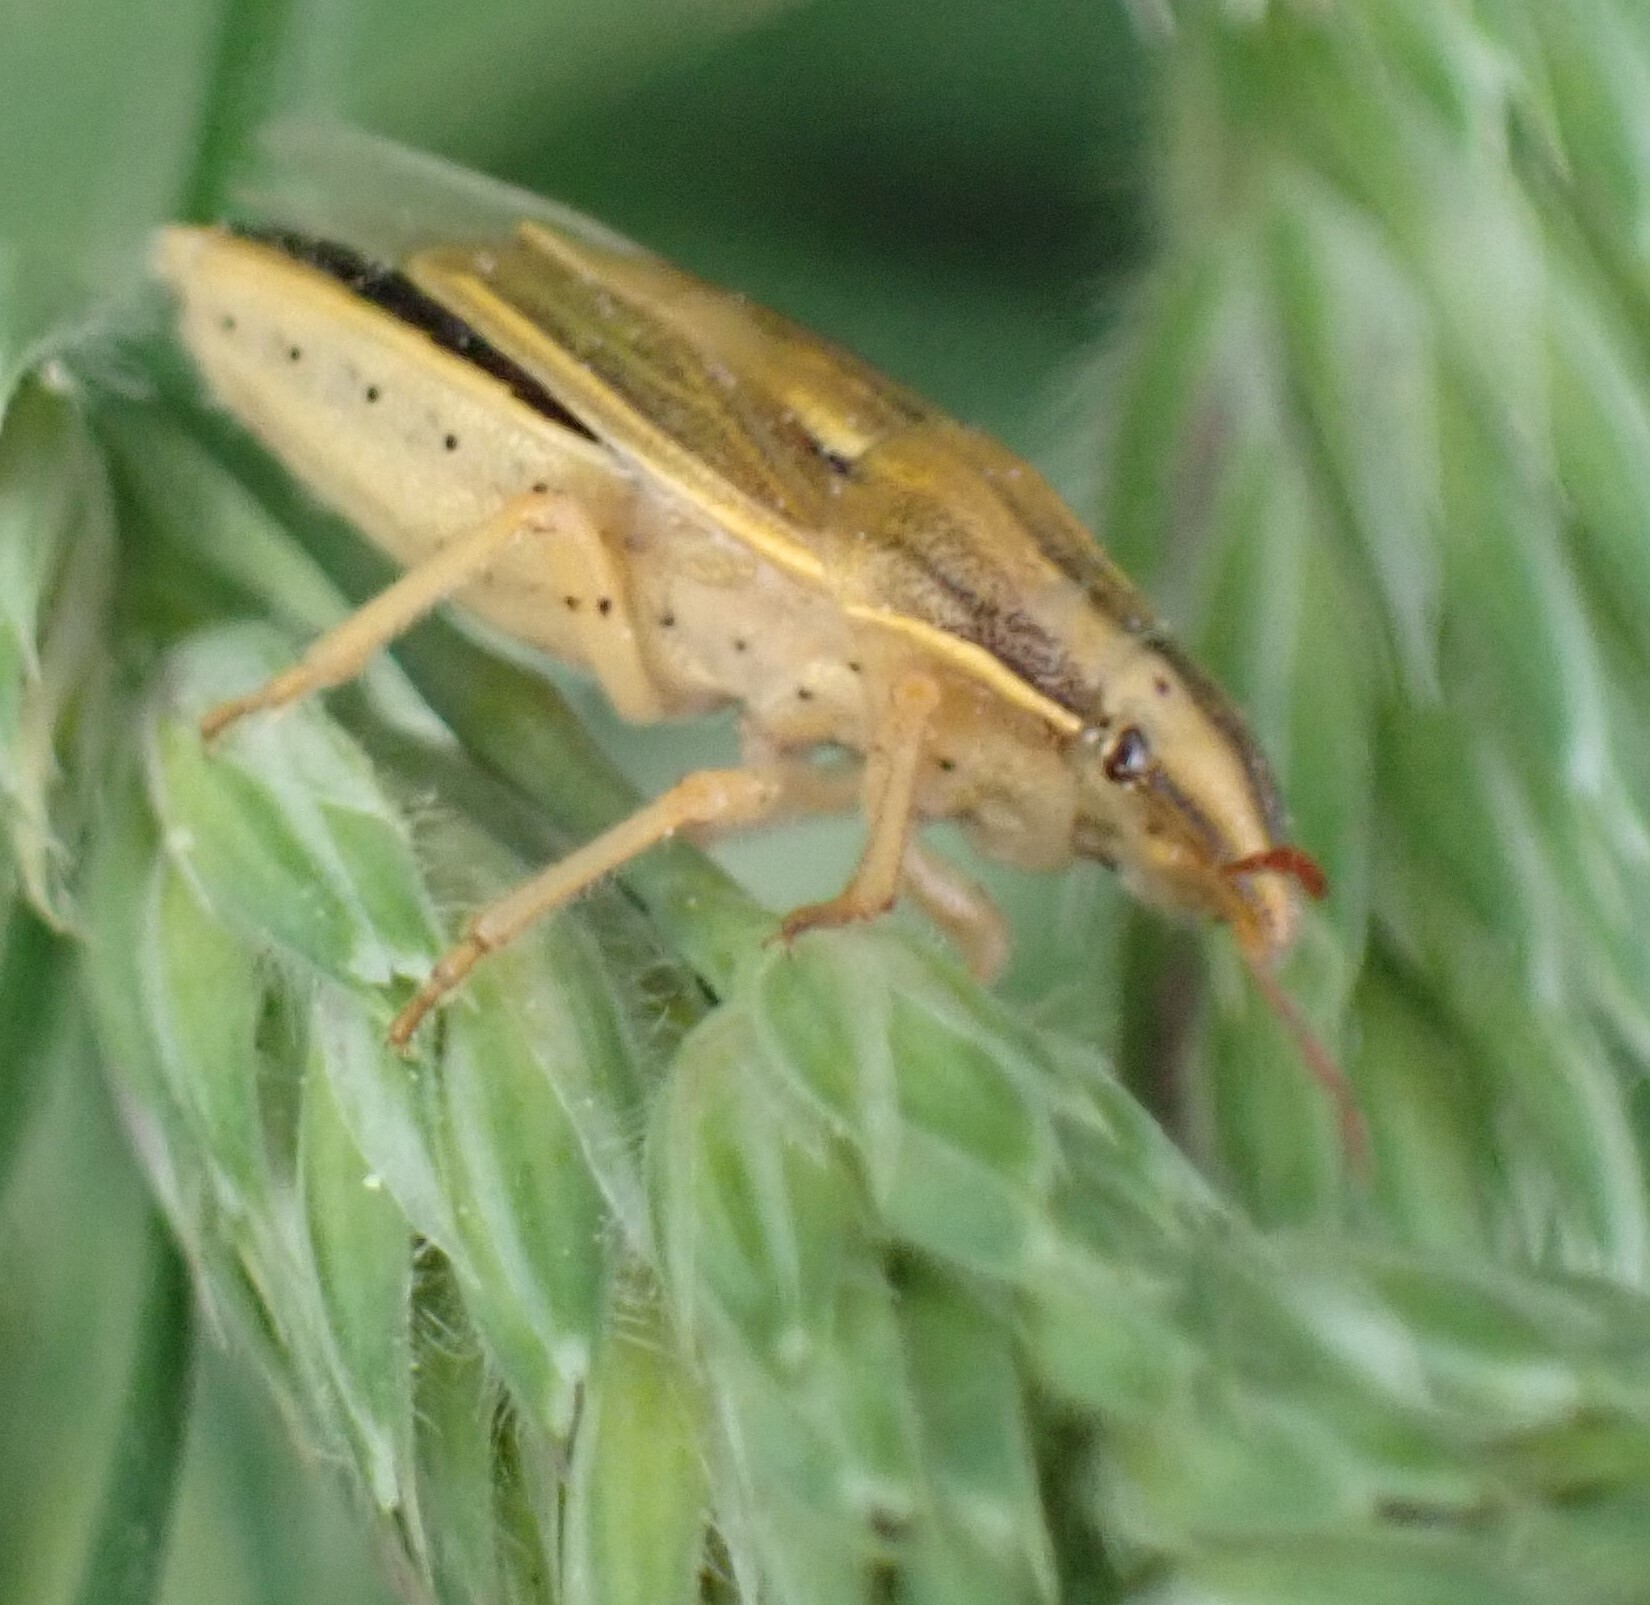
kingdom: Animalia
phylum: Arthropoda
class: Insecta
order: Hemiptera
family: Pentatomidae
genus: Aelia
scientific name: Aelia acuminata
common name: Bishop's mitre
